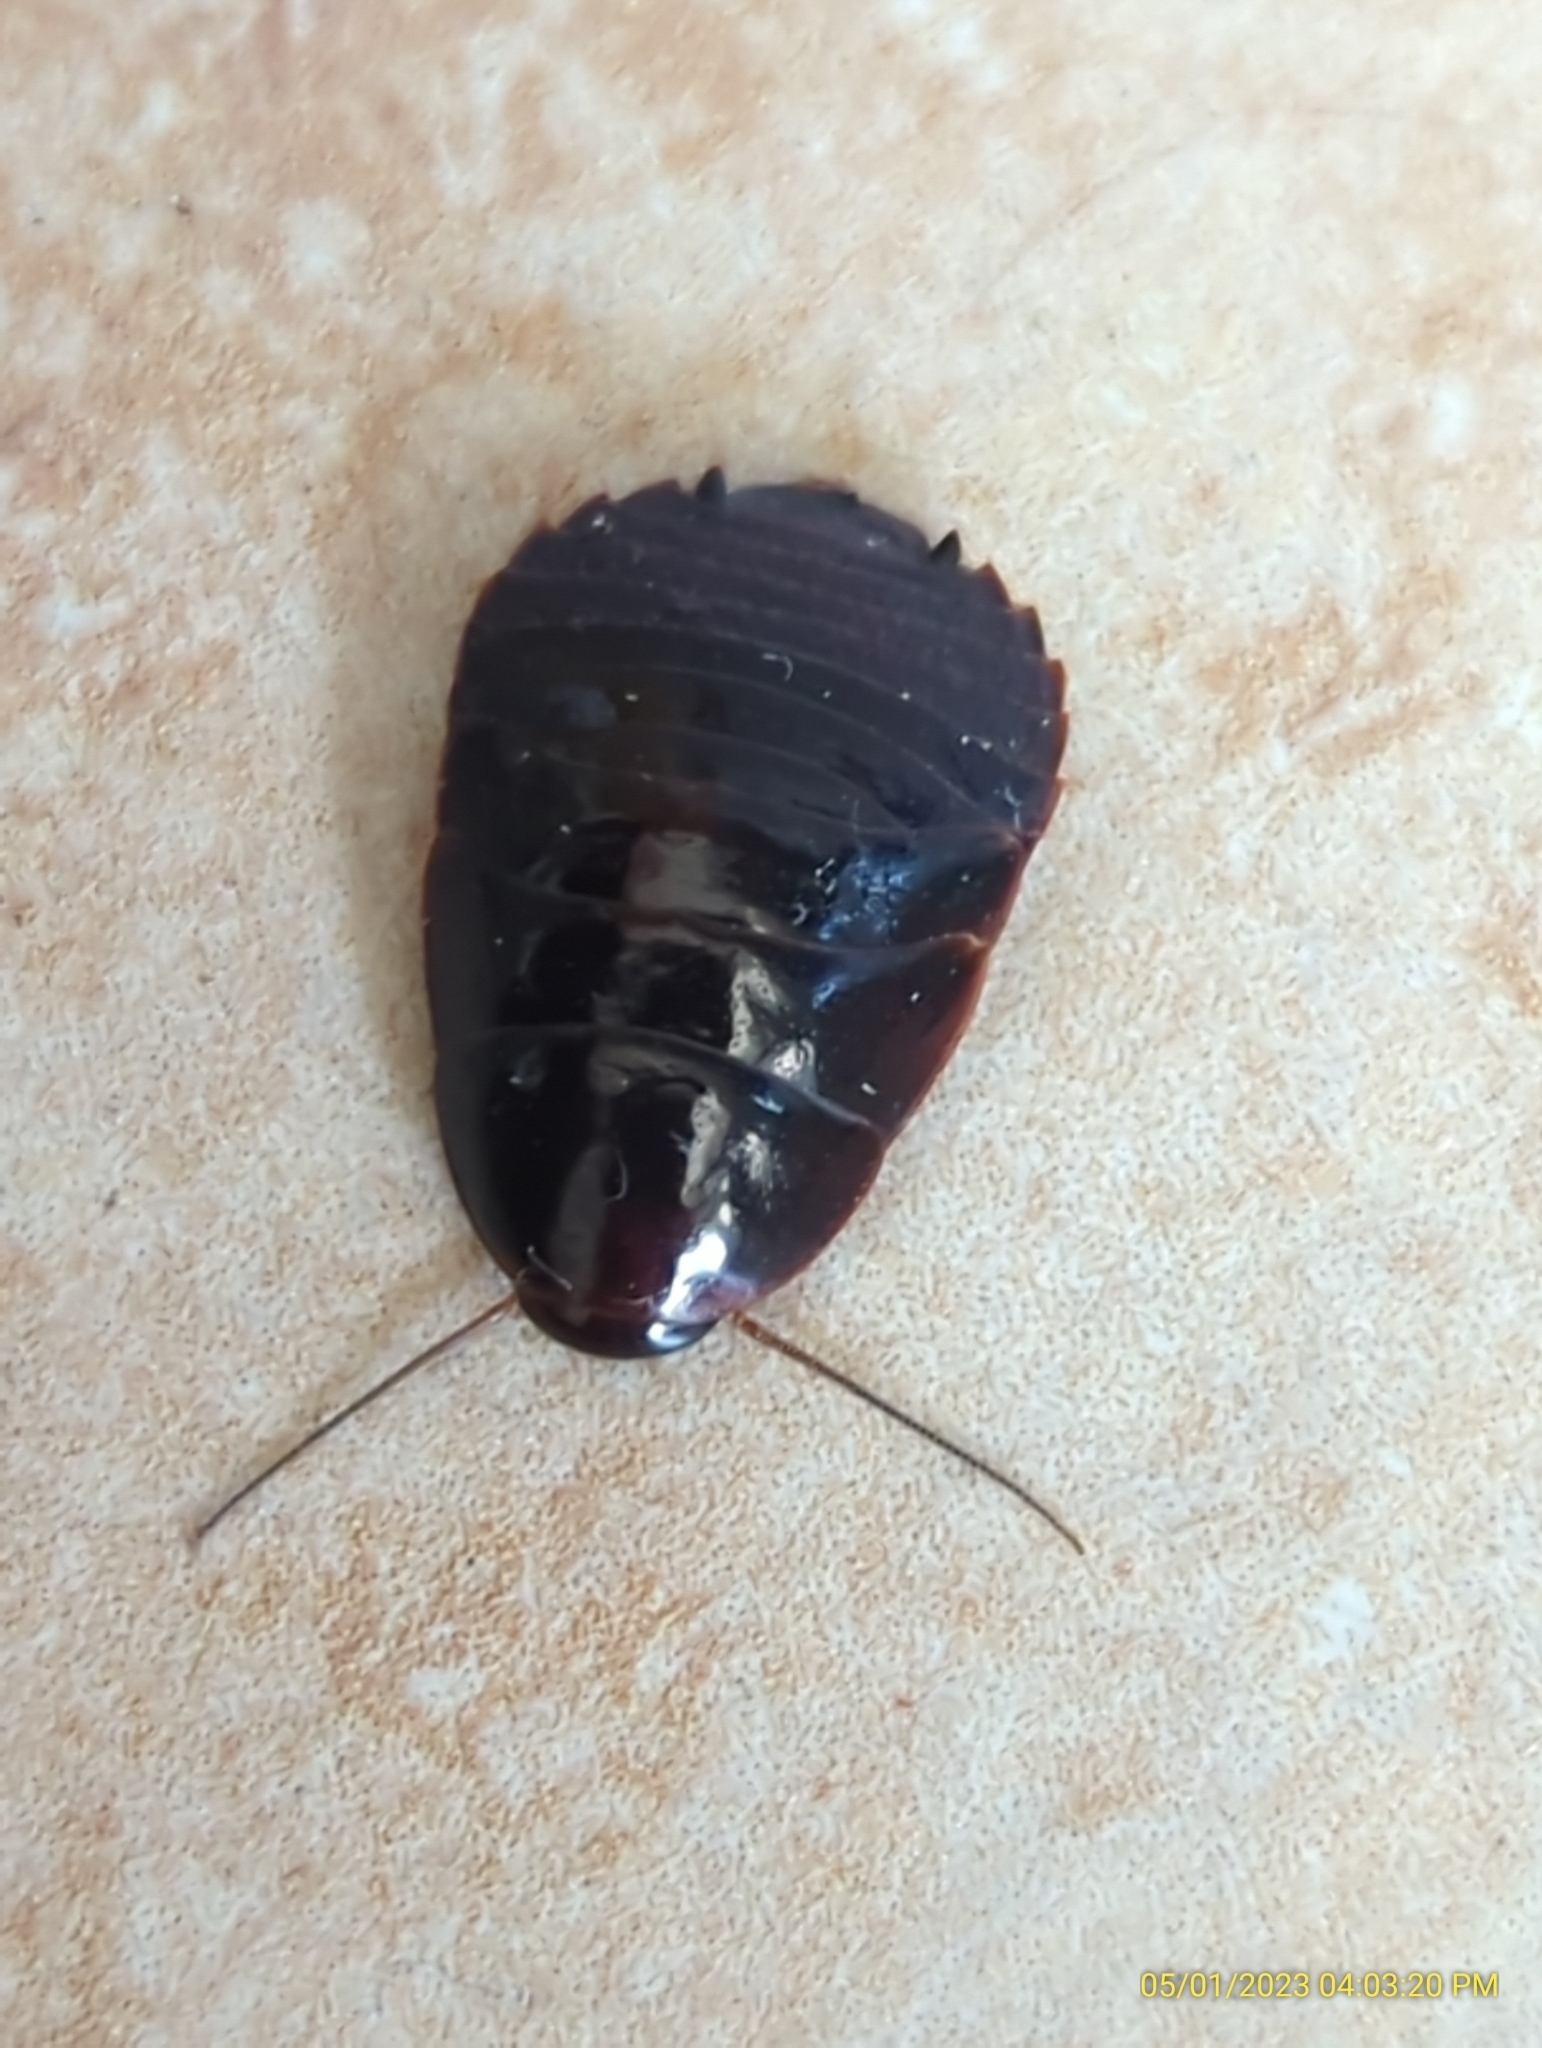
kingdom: Animalia
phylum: Arthropoda
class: Insecta
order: Blattodea
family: Blaberidae
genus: Pycnoscelus
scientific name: Pycnoscelus surinamensis
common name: Surinam cockroach
